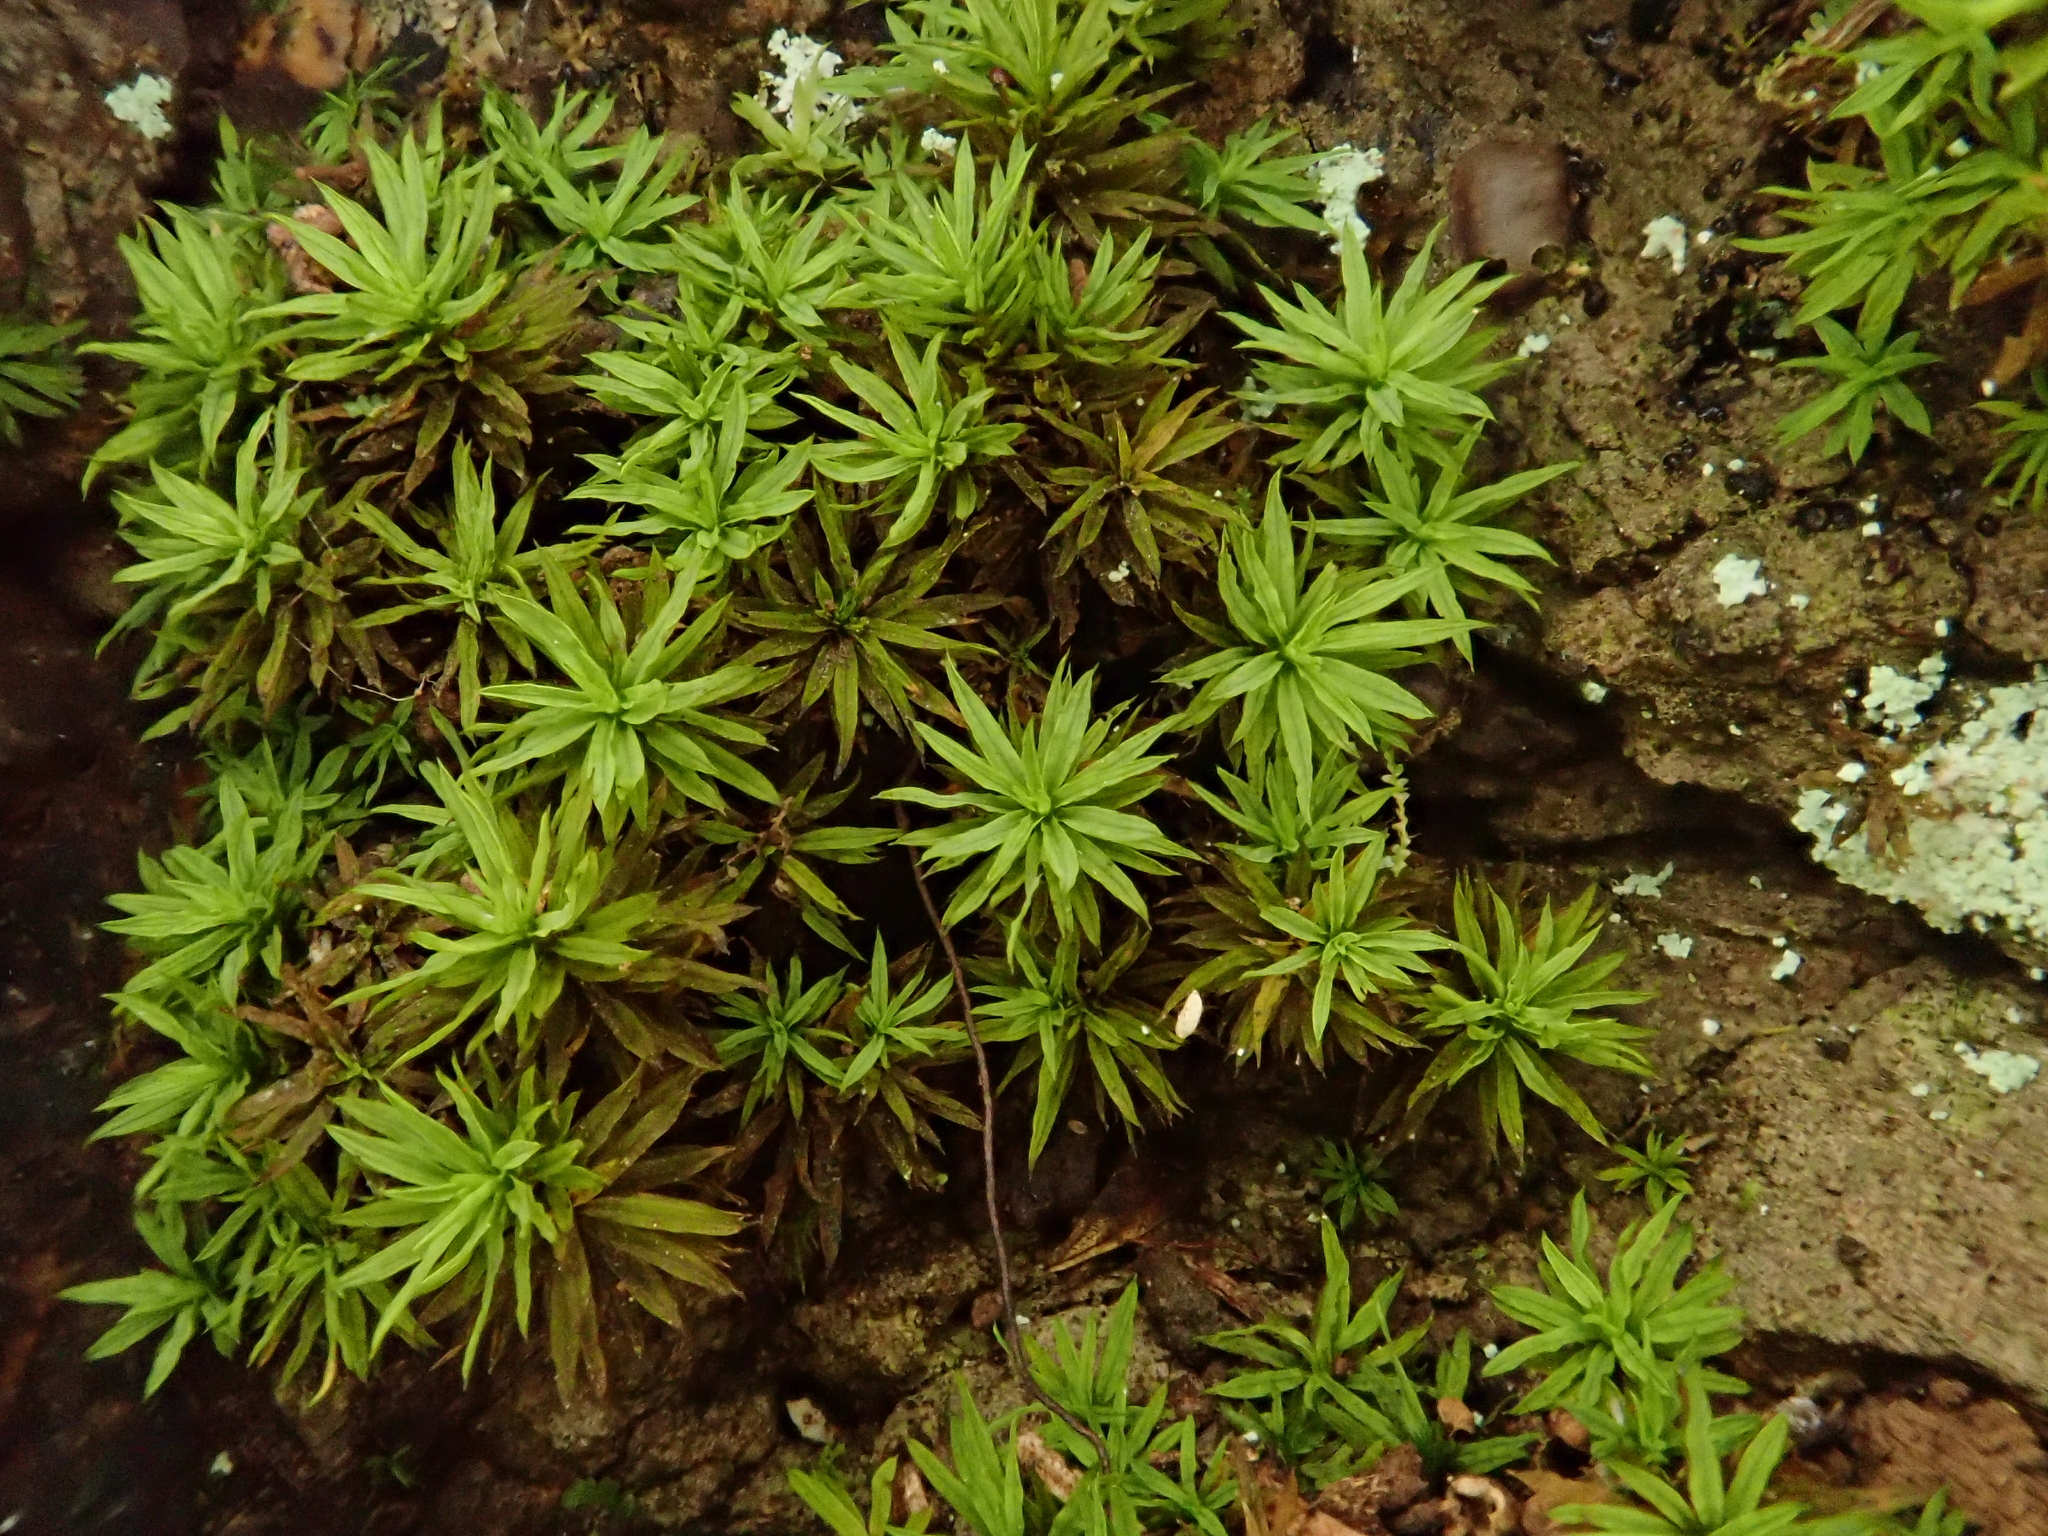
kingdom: Plantae
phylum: Bryophyta
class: Bryopsida
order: Scouleriales
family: Timmiellaceae
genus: Timmiella
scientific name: Timmiella barbuloides
